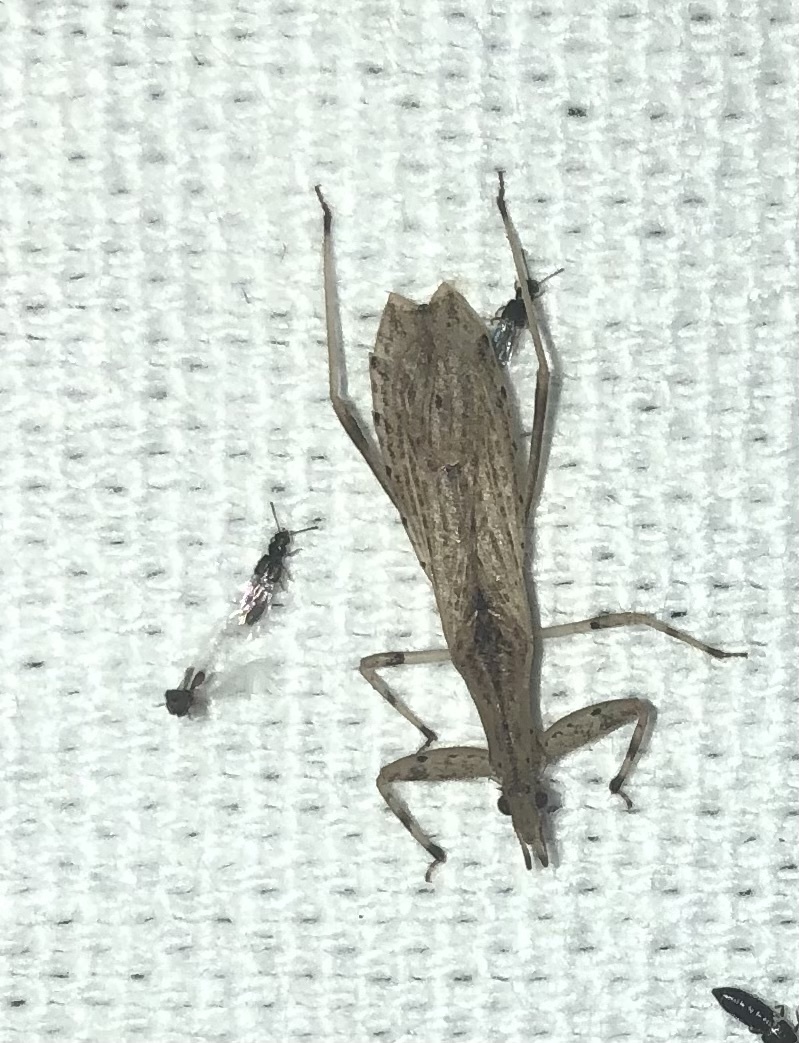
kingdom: Animalia
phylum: Arthropoda
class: Insecta
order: Hemiptera
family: Reduviidae
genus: Ctenotrachelus
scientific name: Ctenotrachelus shermani
